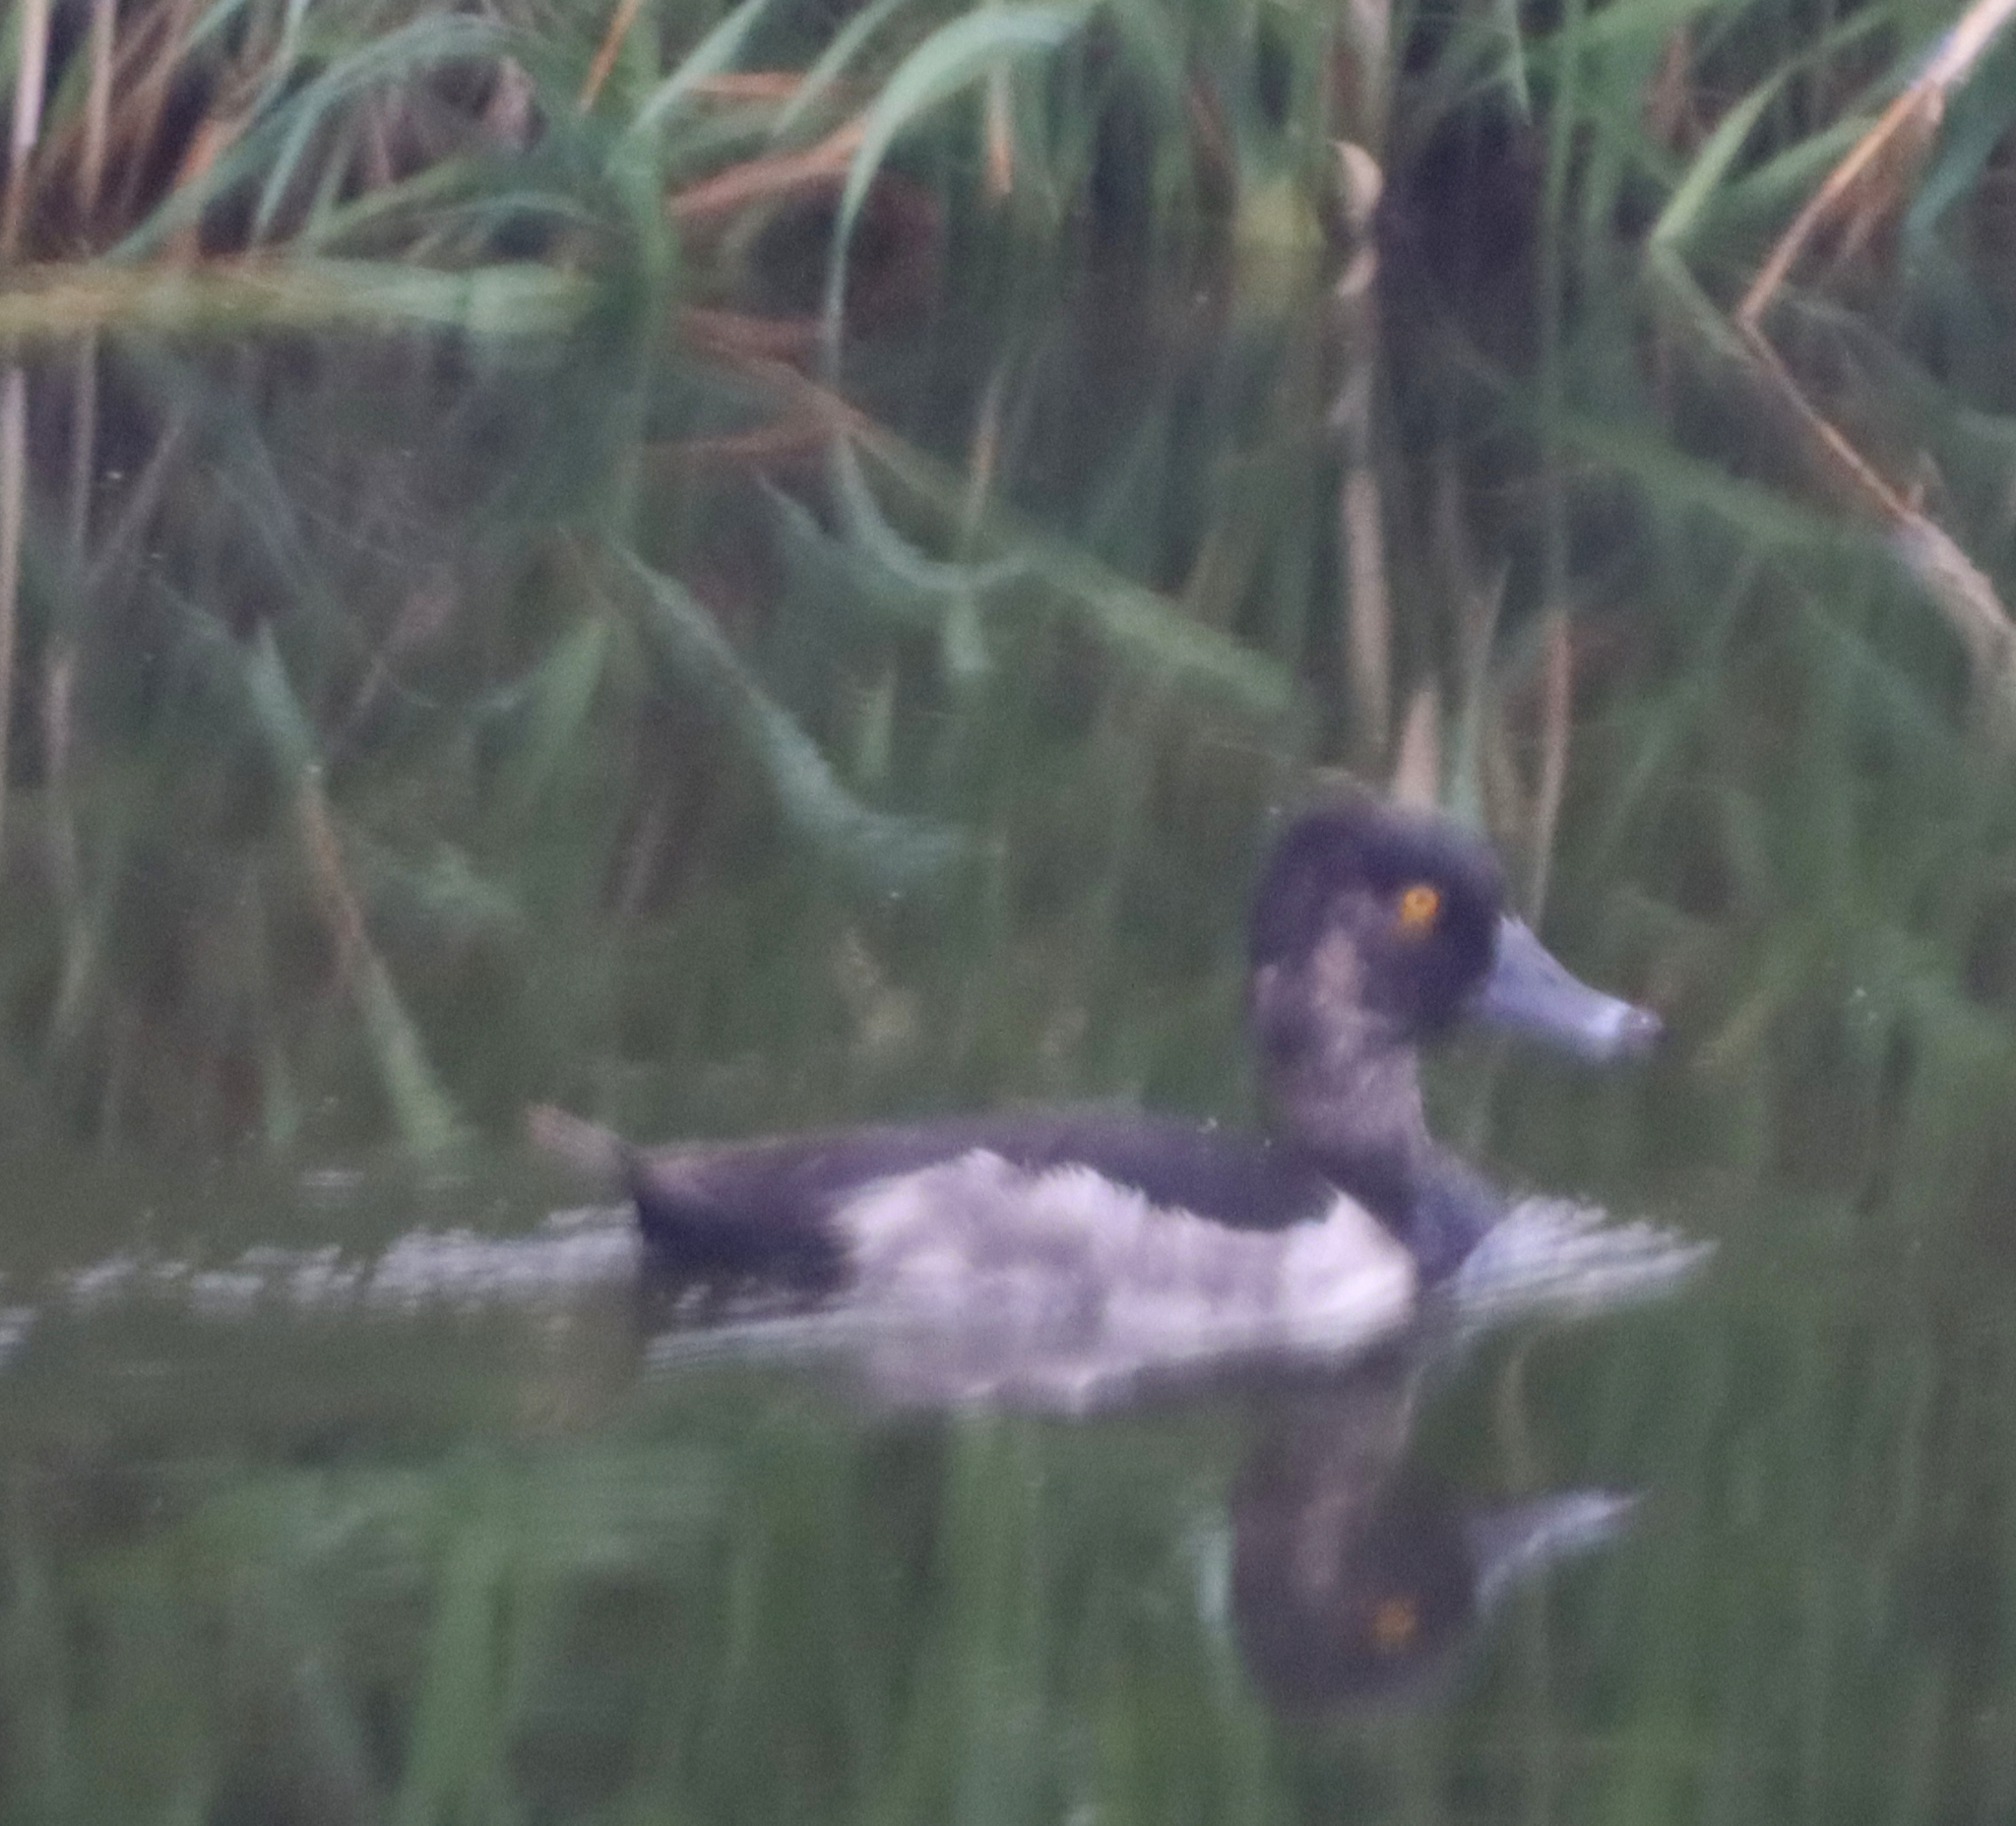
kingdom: Animalia
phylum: Chordata
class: Aves
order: Anseriformes
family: Anatidae
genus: Aythya
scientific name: Aythya collaris
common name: Ring-necked duck
